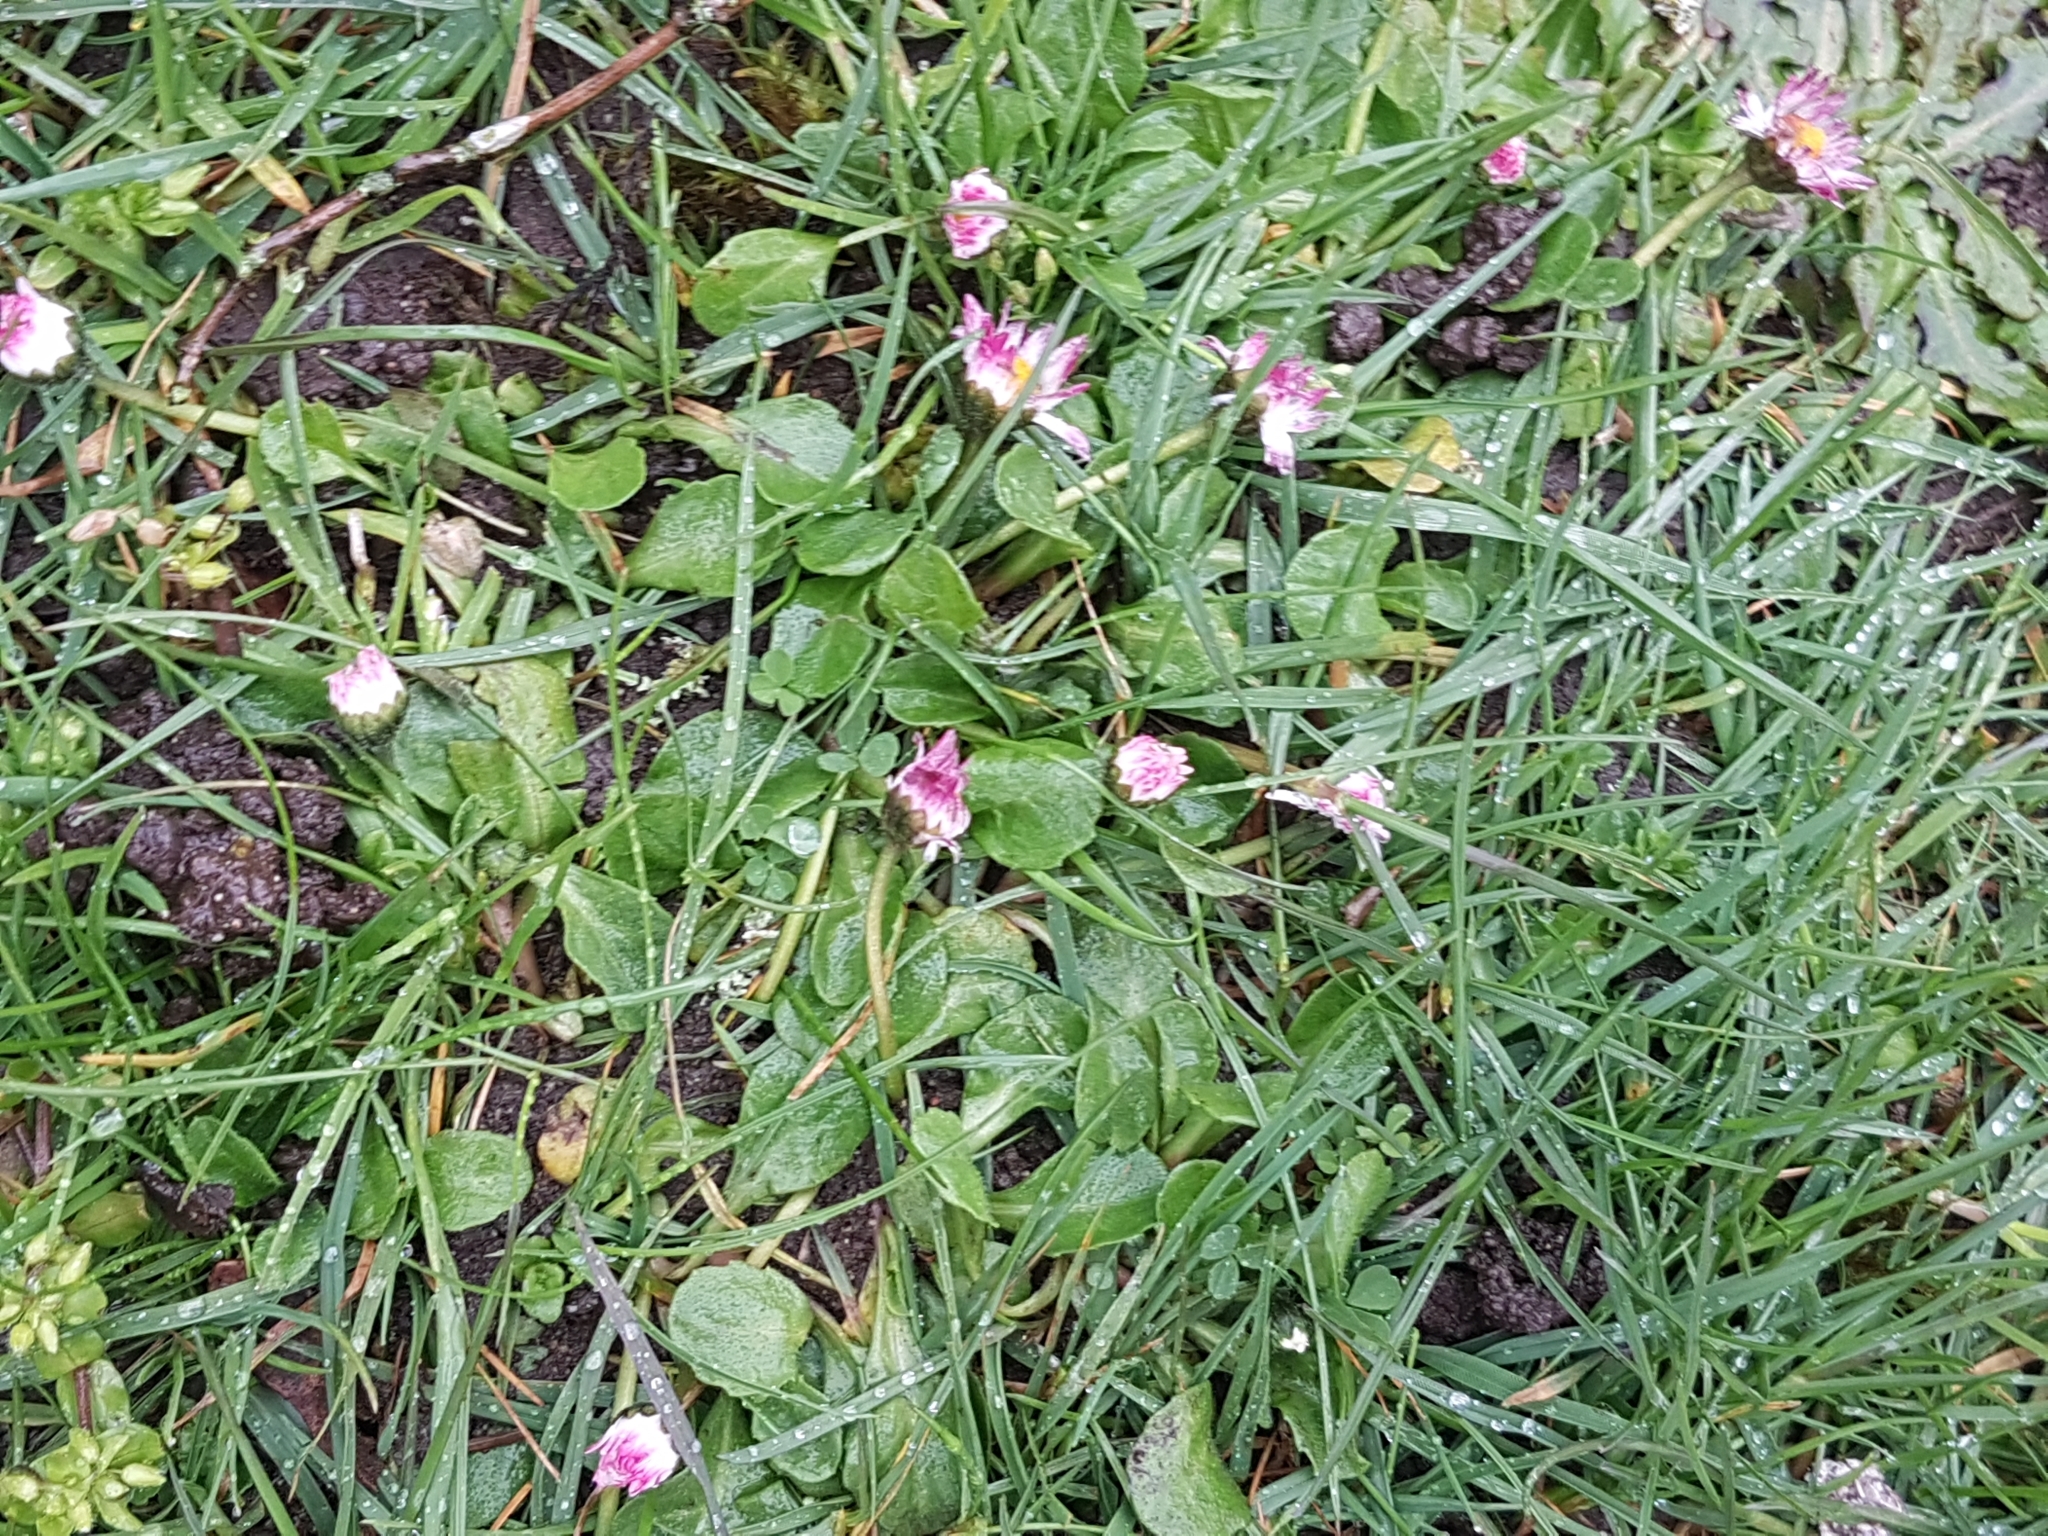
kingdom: Plantae
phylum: Tracheophyta
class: Magnoliopsida
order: Asterales
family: Asteraceae
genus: Bellis
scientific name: Bellis perennis
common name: Lawndaisy
